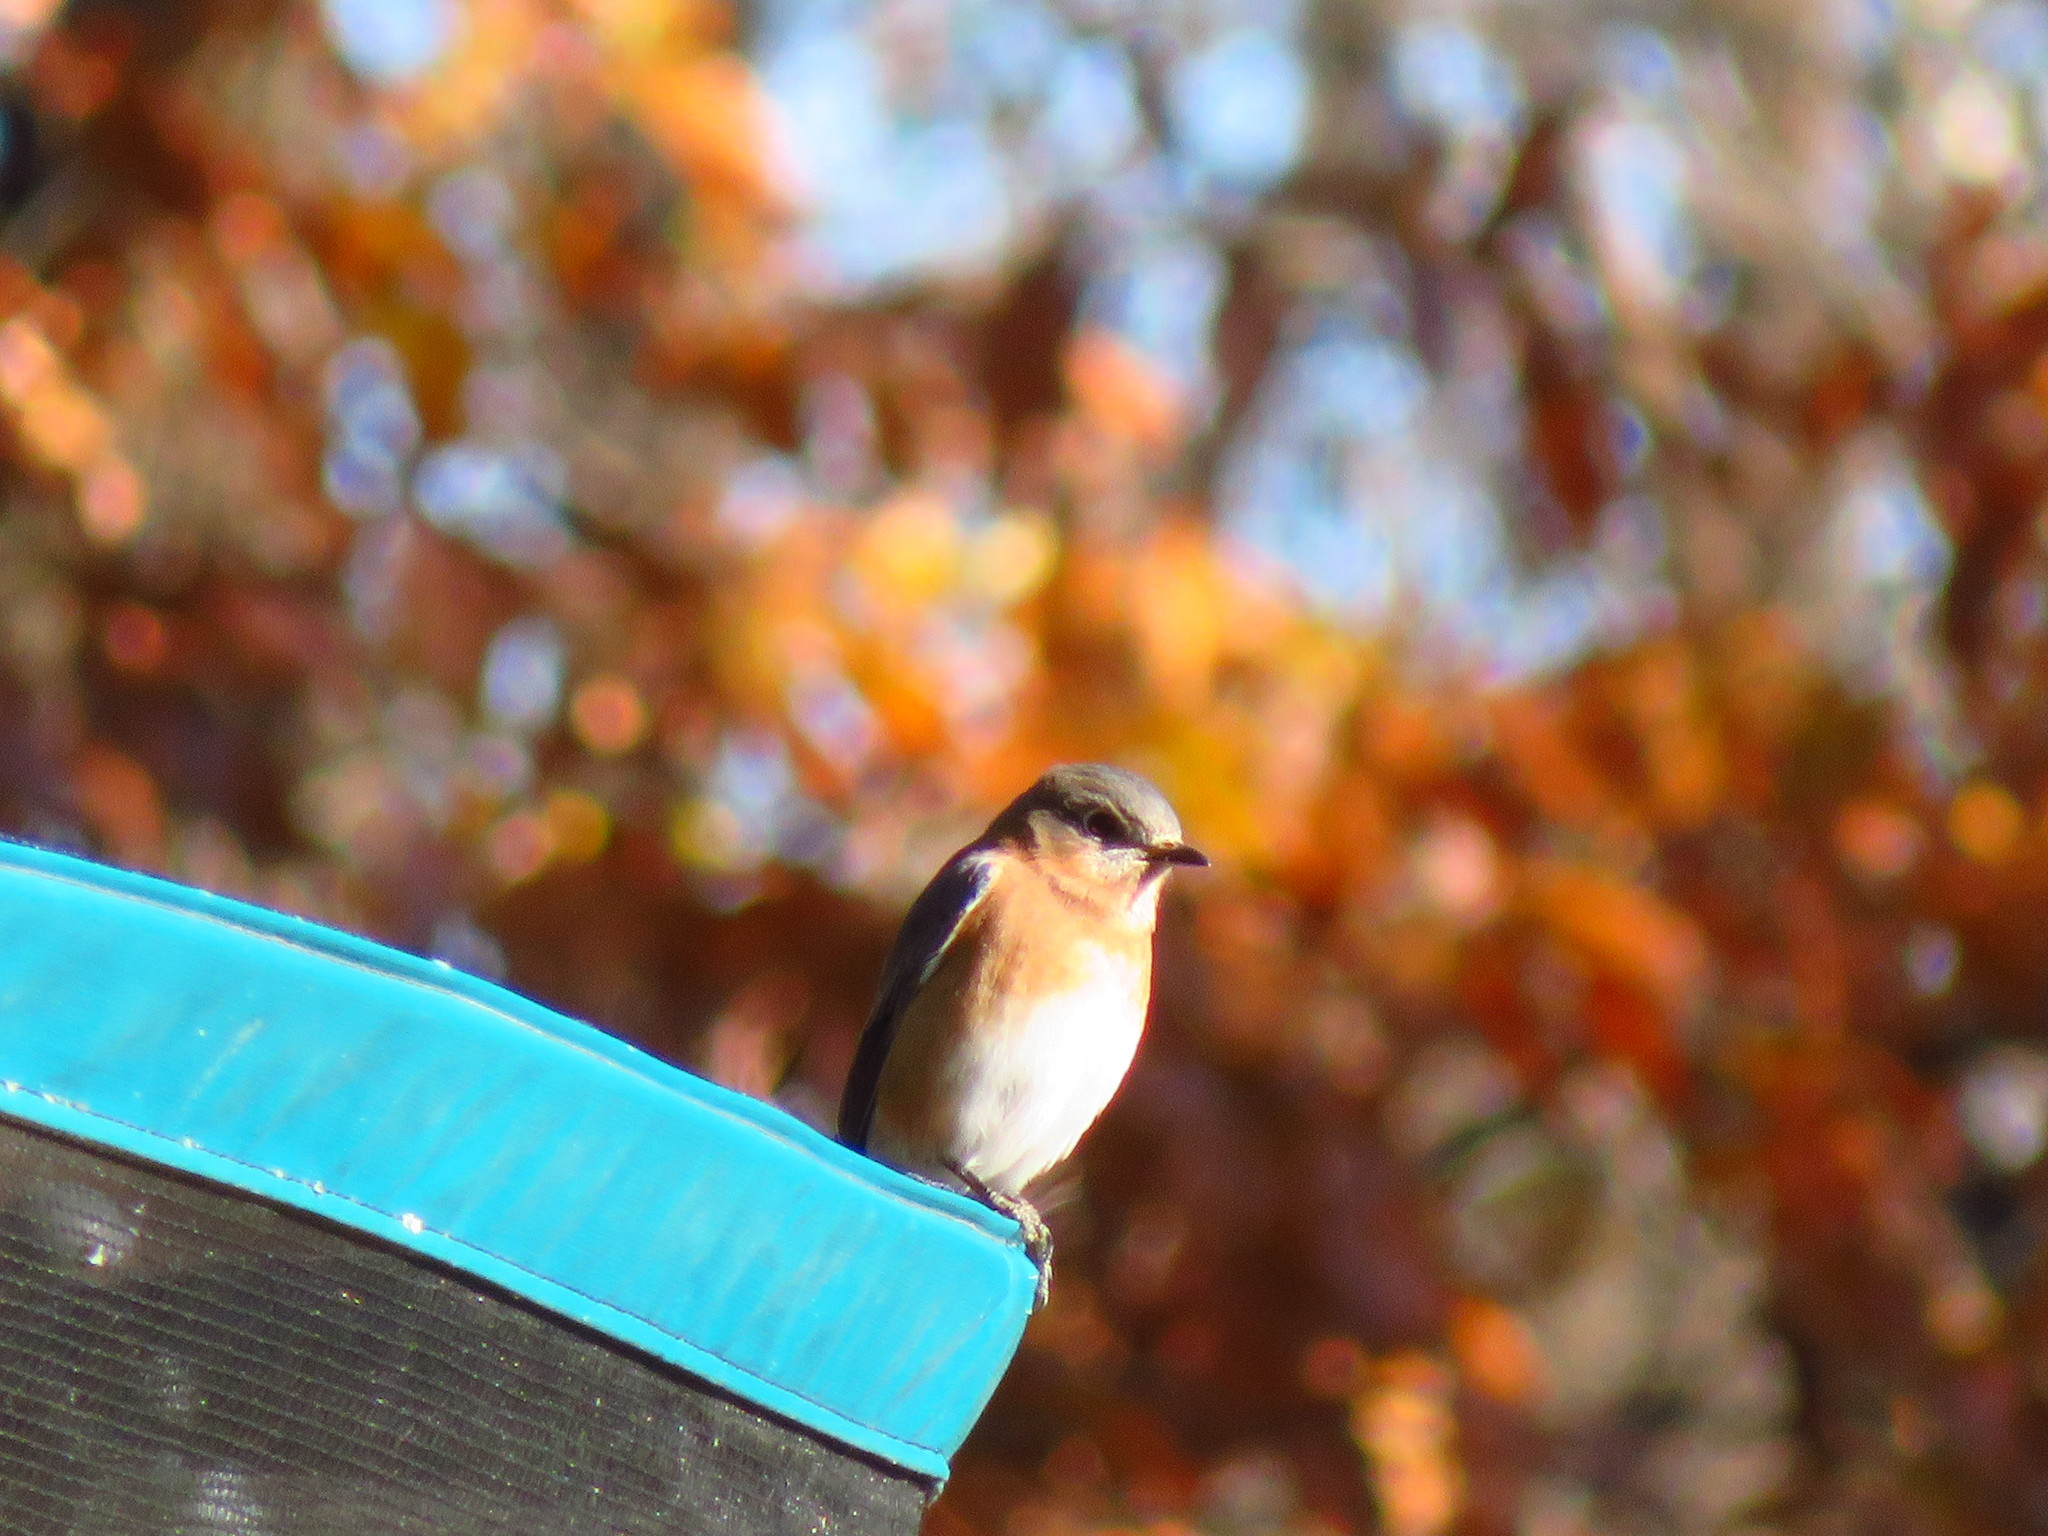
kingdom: Animalia
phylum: Chordata
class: Aves
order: Passeriformes
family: Turdidae
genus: Sialia
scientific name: Sialia sialis
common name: Eastern bluebird
